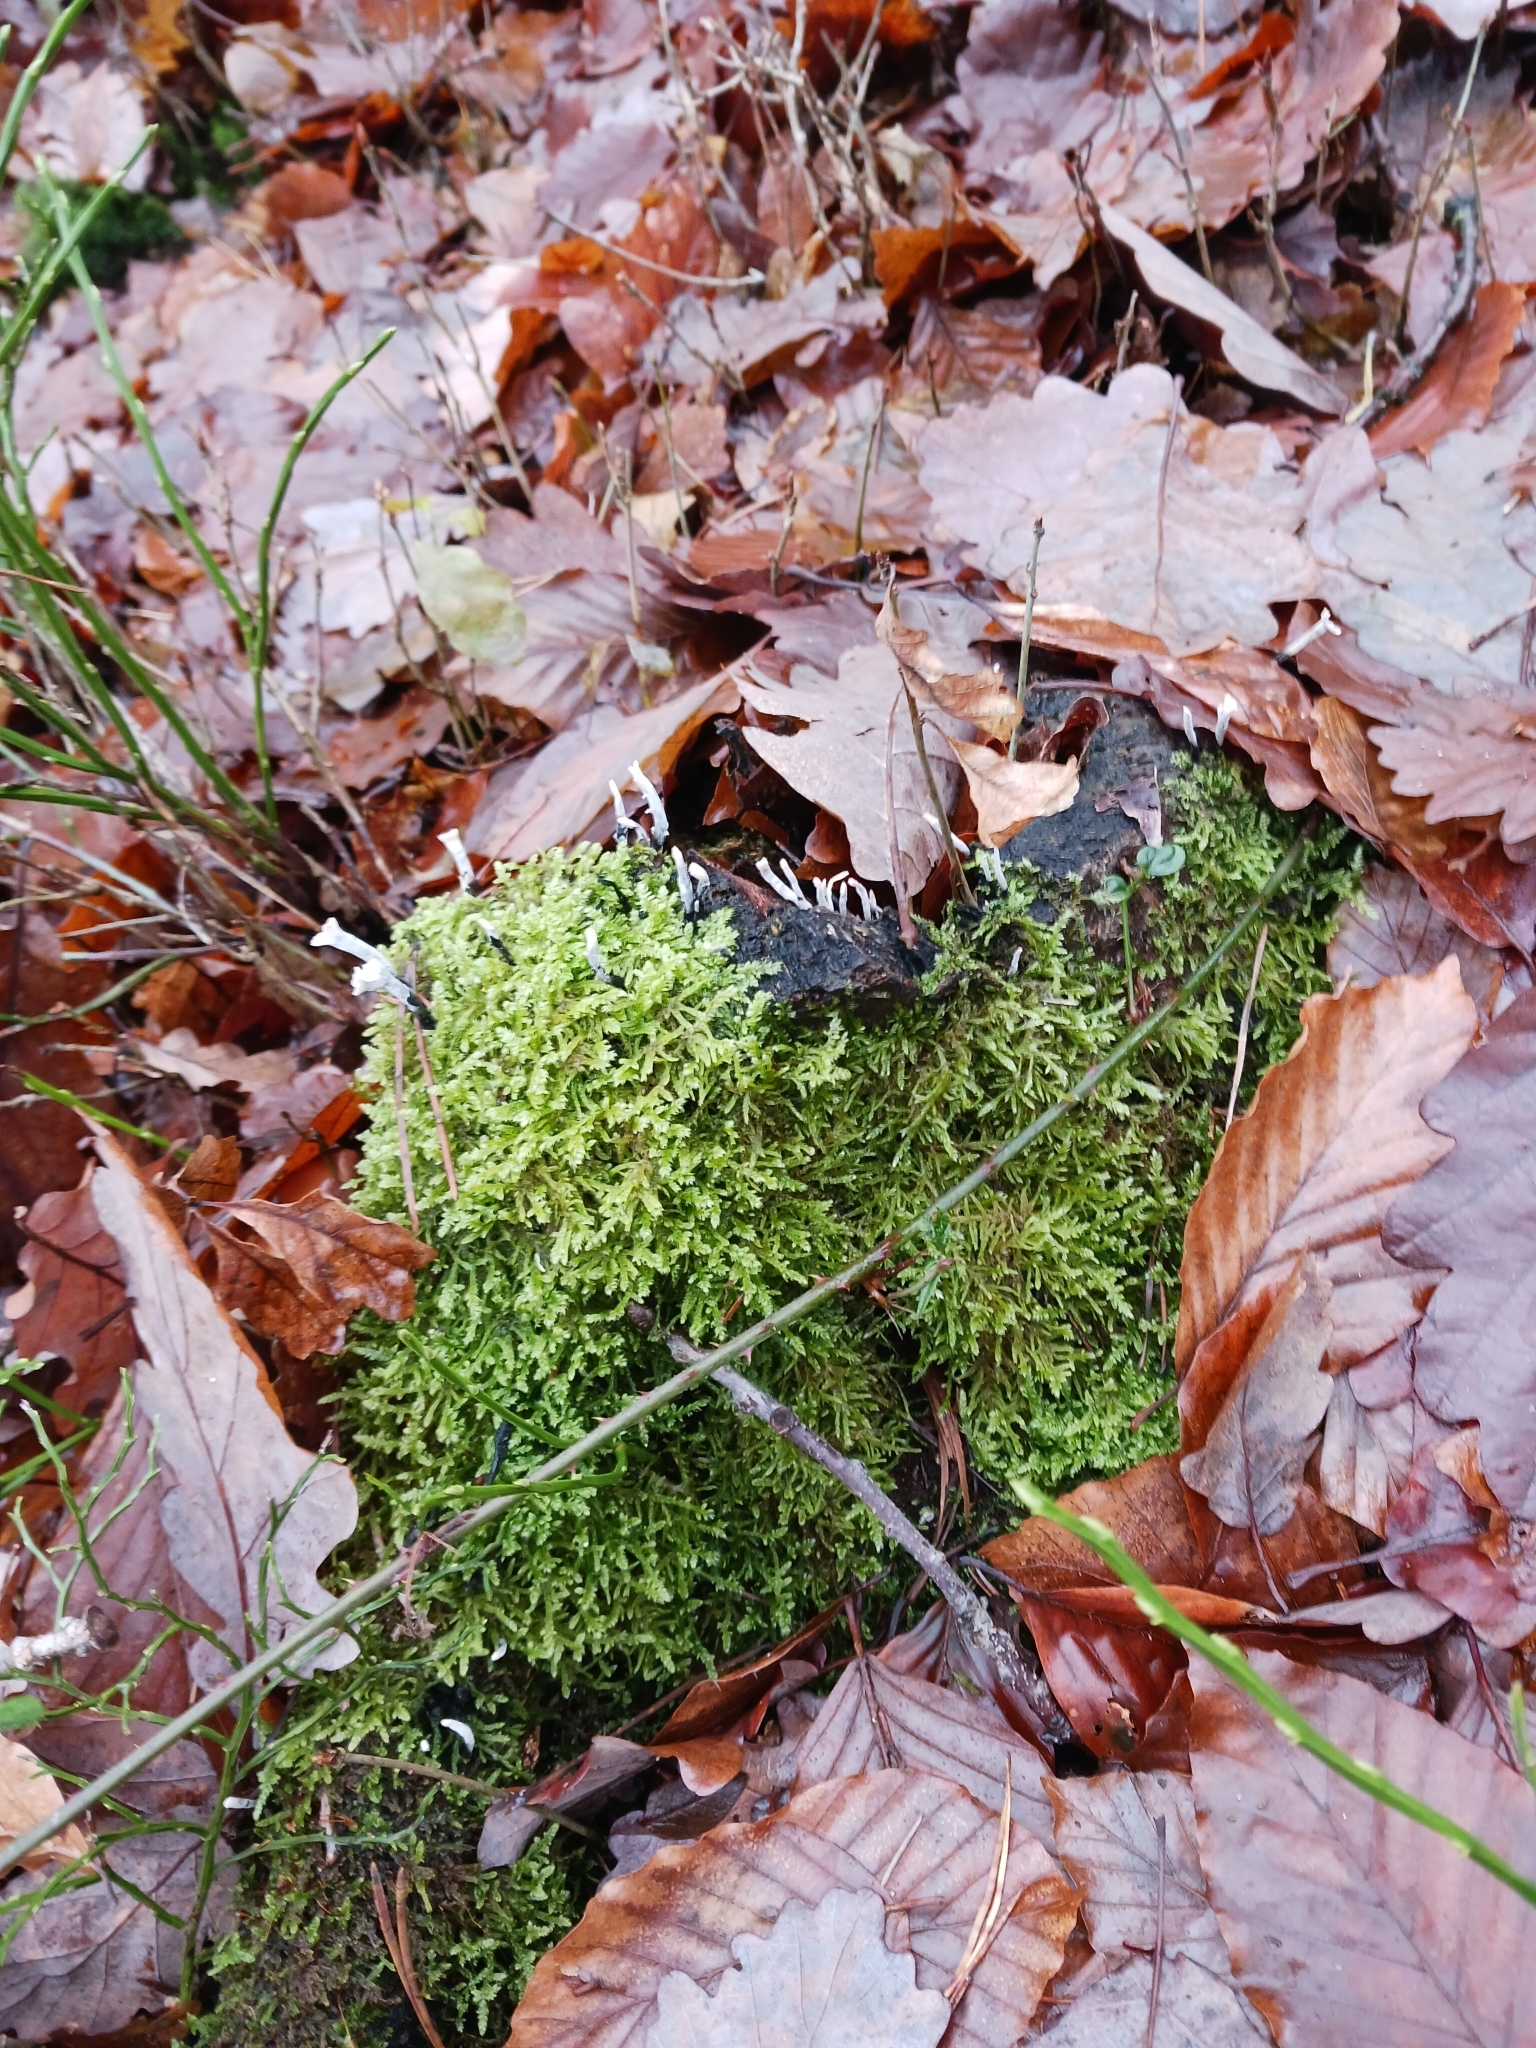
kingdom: Fungi
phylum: Ascomycota
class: Sordariomycetes
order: Xylariales
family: Xylariaceae
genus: Xylaria
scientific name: Xylaria hypoxylon
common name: Candle-snuff fungus
